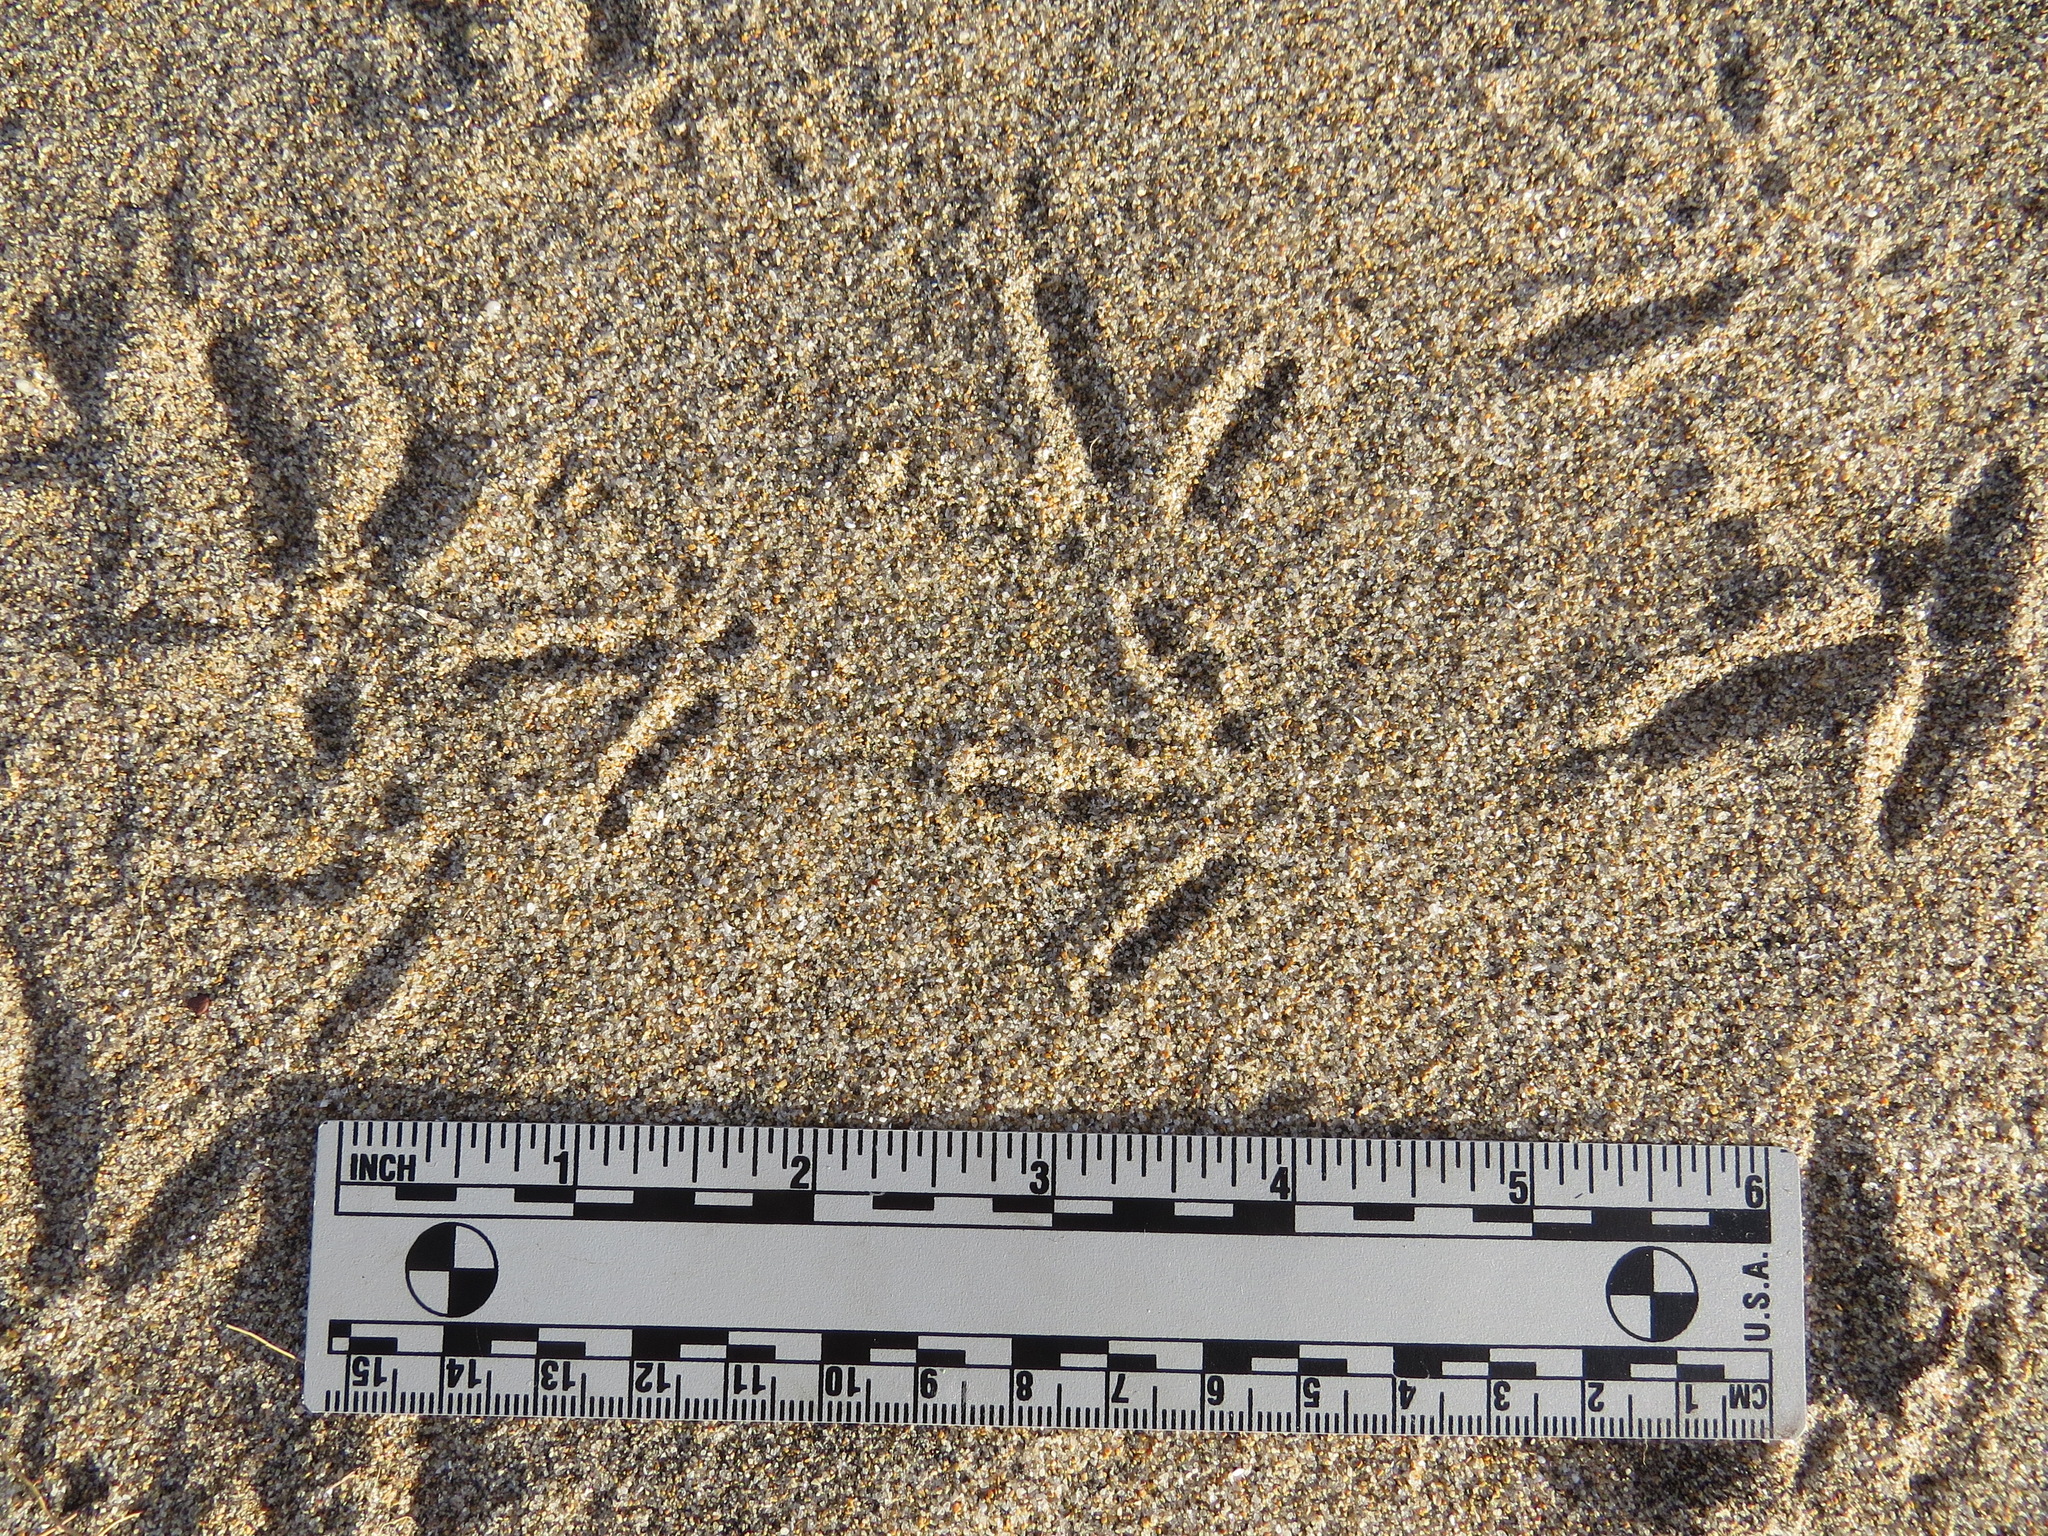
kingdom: Animalia
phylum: Chordata
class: Aves
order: Galliformes
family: Odontophoridae
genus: Callipepla
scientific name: Callipepla californica
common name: California quail
